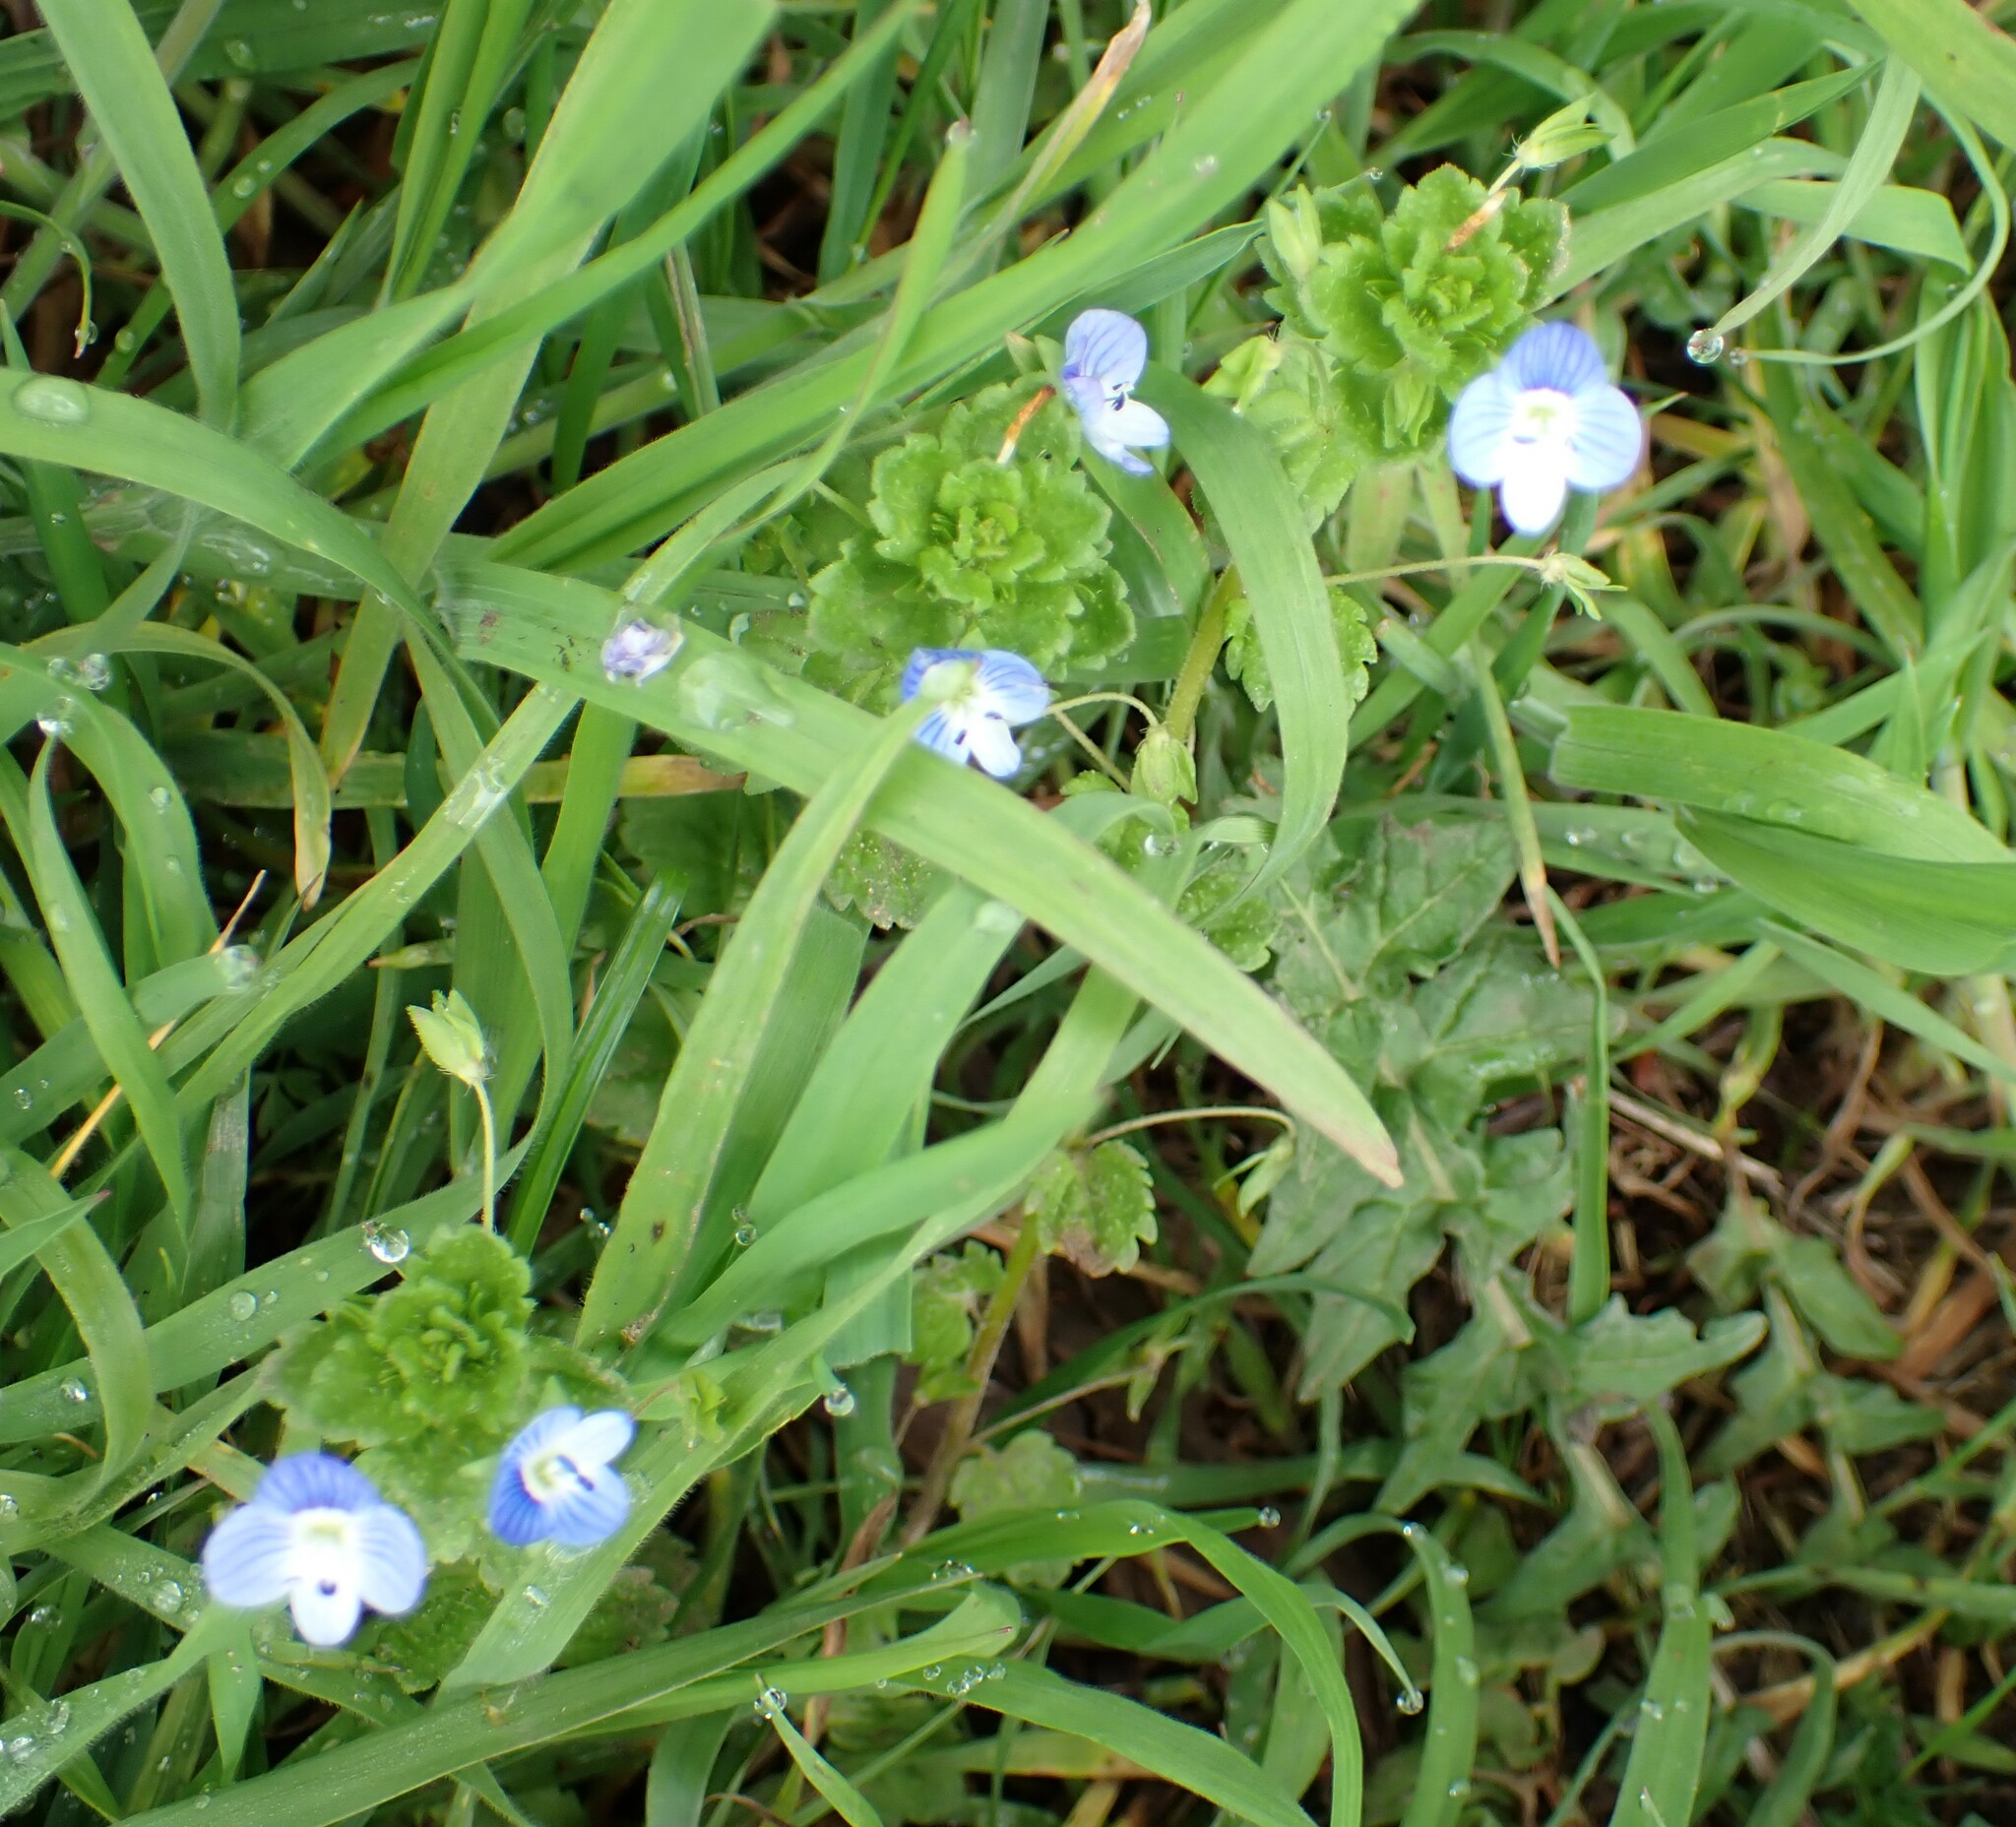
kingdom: Plantae
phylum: Tracheophyta
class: Magnoliopsida
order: Lamiales
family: Plantaginaceae
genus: Veronica
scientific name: Veronica persica
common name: Common field-speedwell
